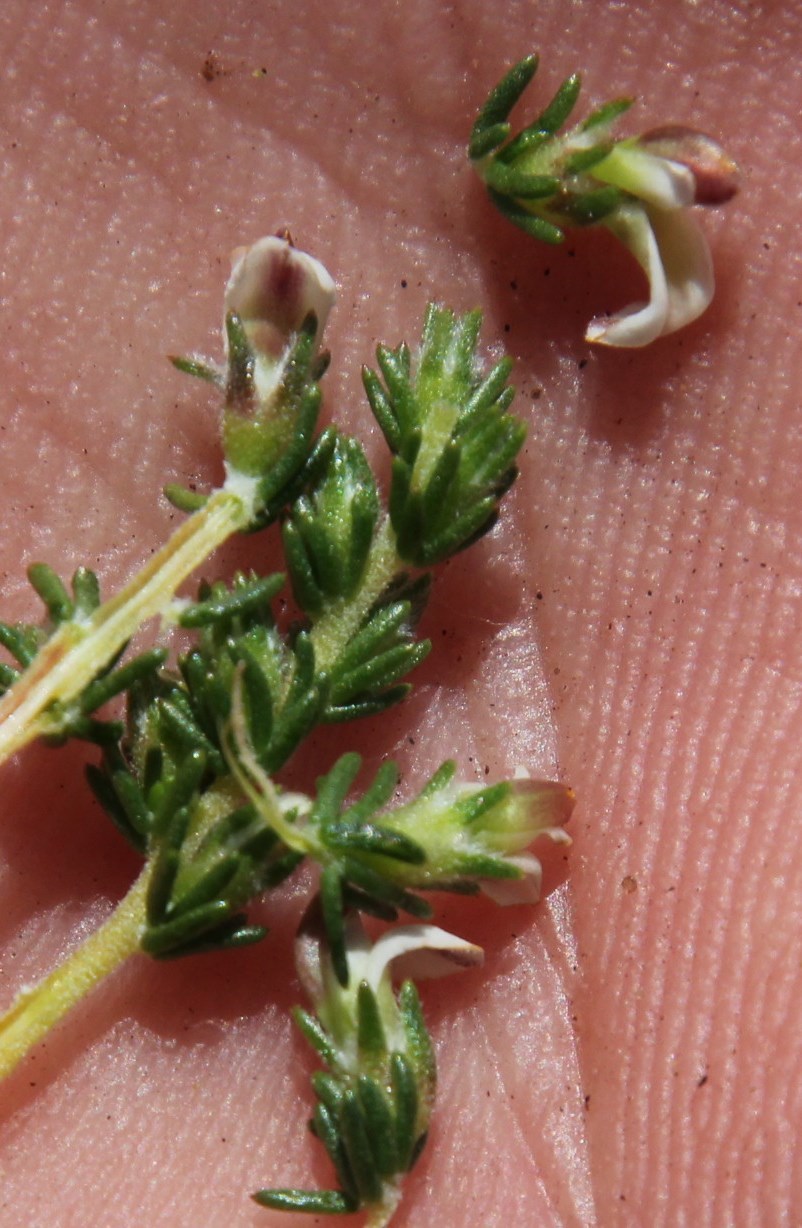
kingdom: Plantae
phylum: Tracheophyta
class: Magnoliopsida
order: Fabales
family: Fabaceae
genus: Aspalathus
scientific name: Aspalathus hispida
